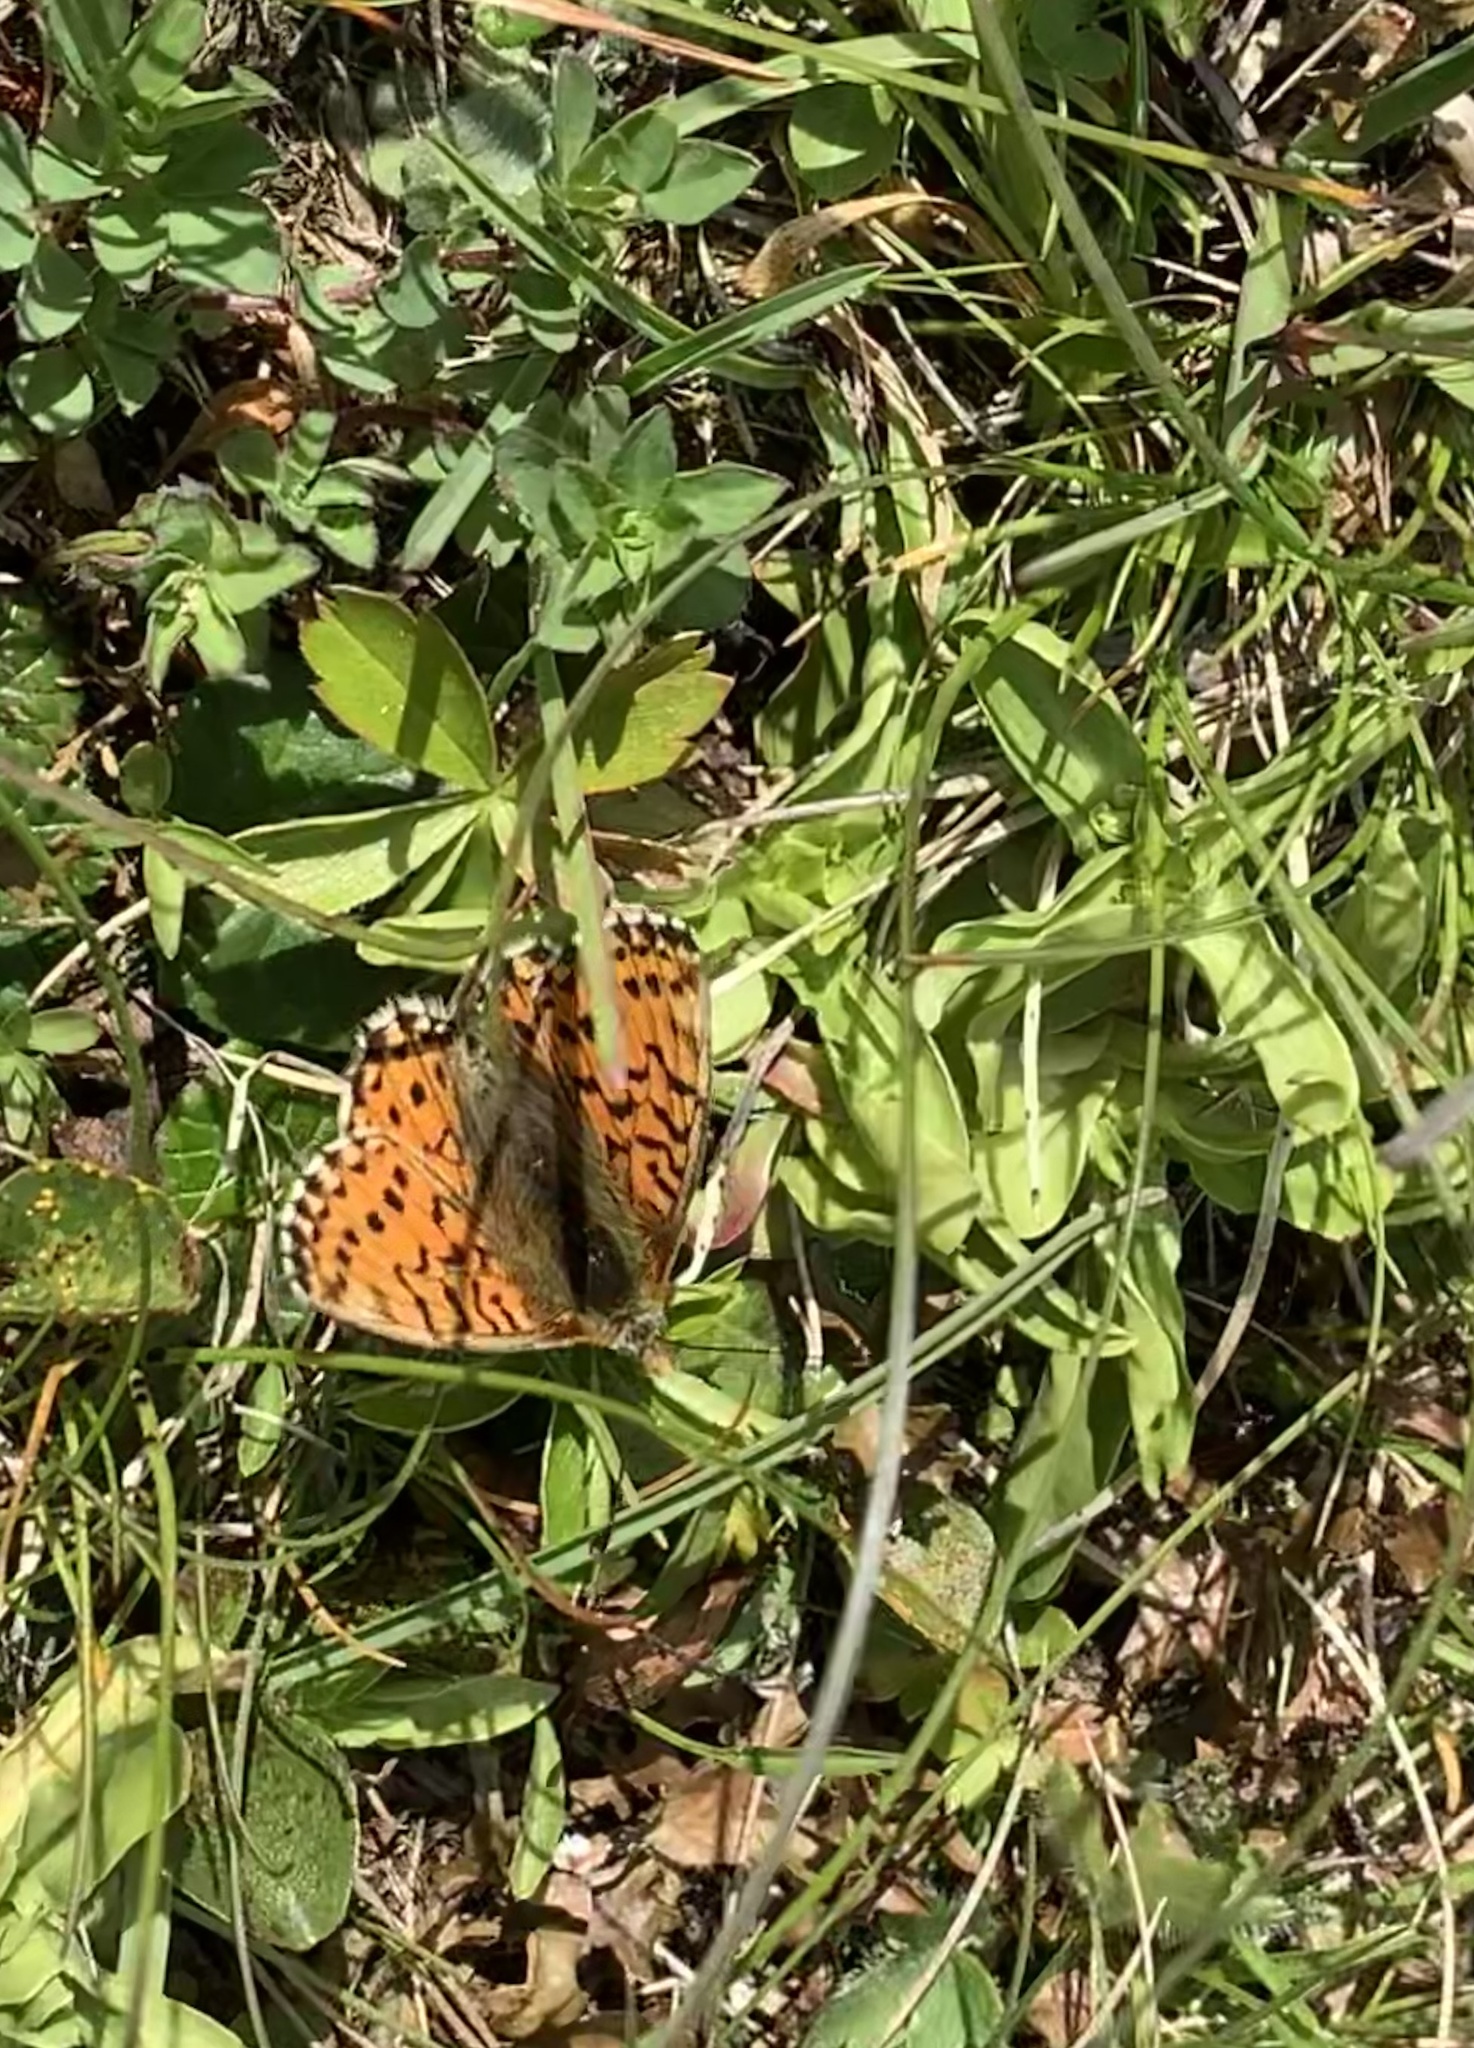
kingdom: Animalia
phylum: Arthropoda
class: Insecta
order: Lepidoptera
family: Nymphalidae
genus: Boloria
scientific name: Boloria pales
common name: Shepherd's fritillary
